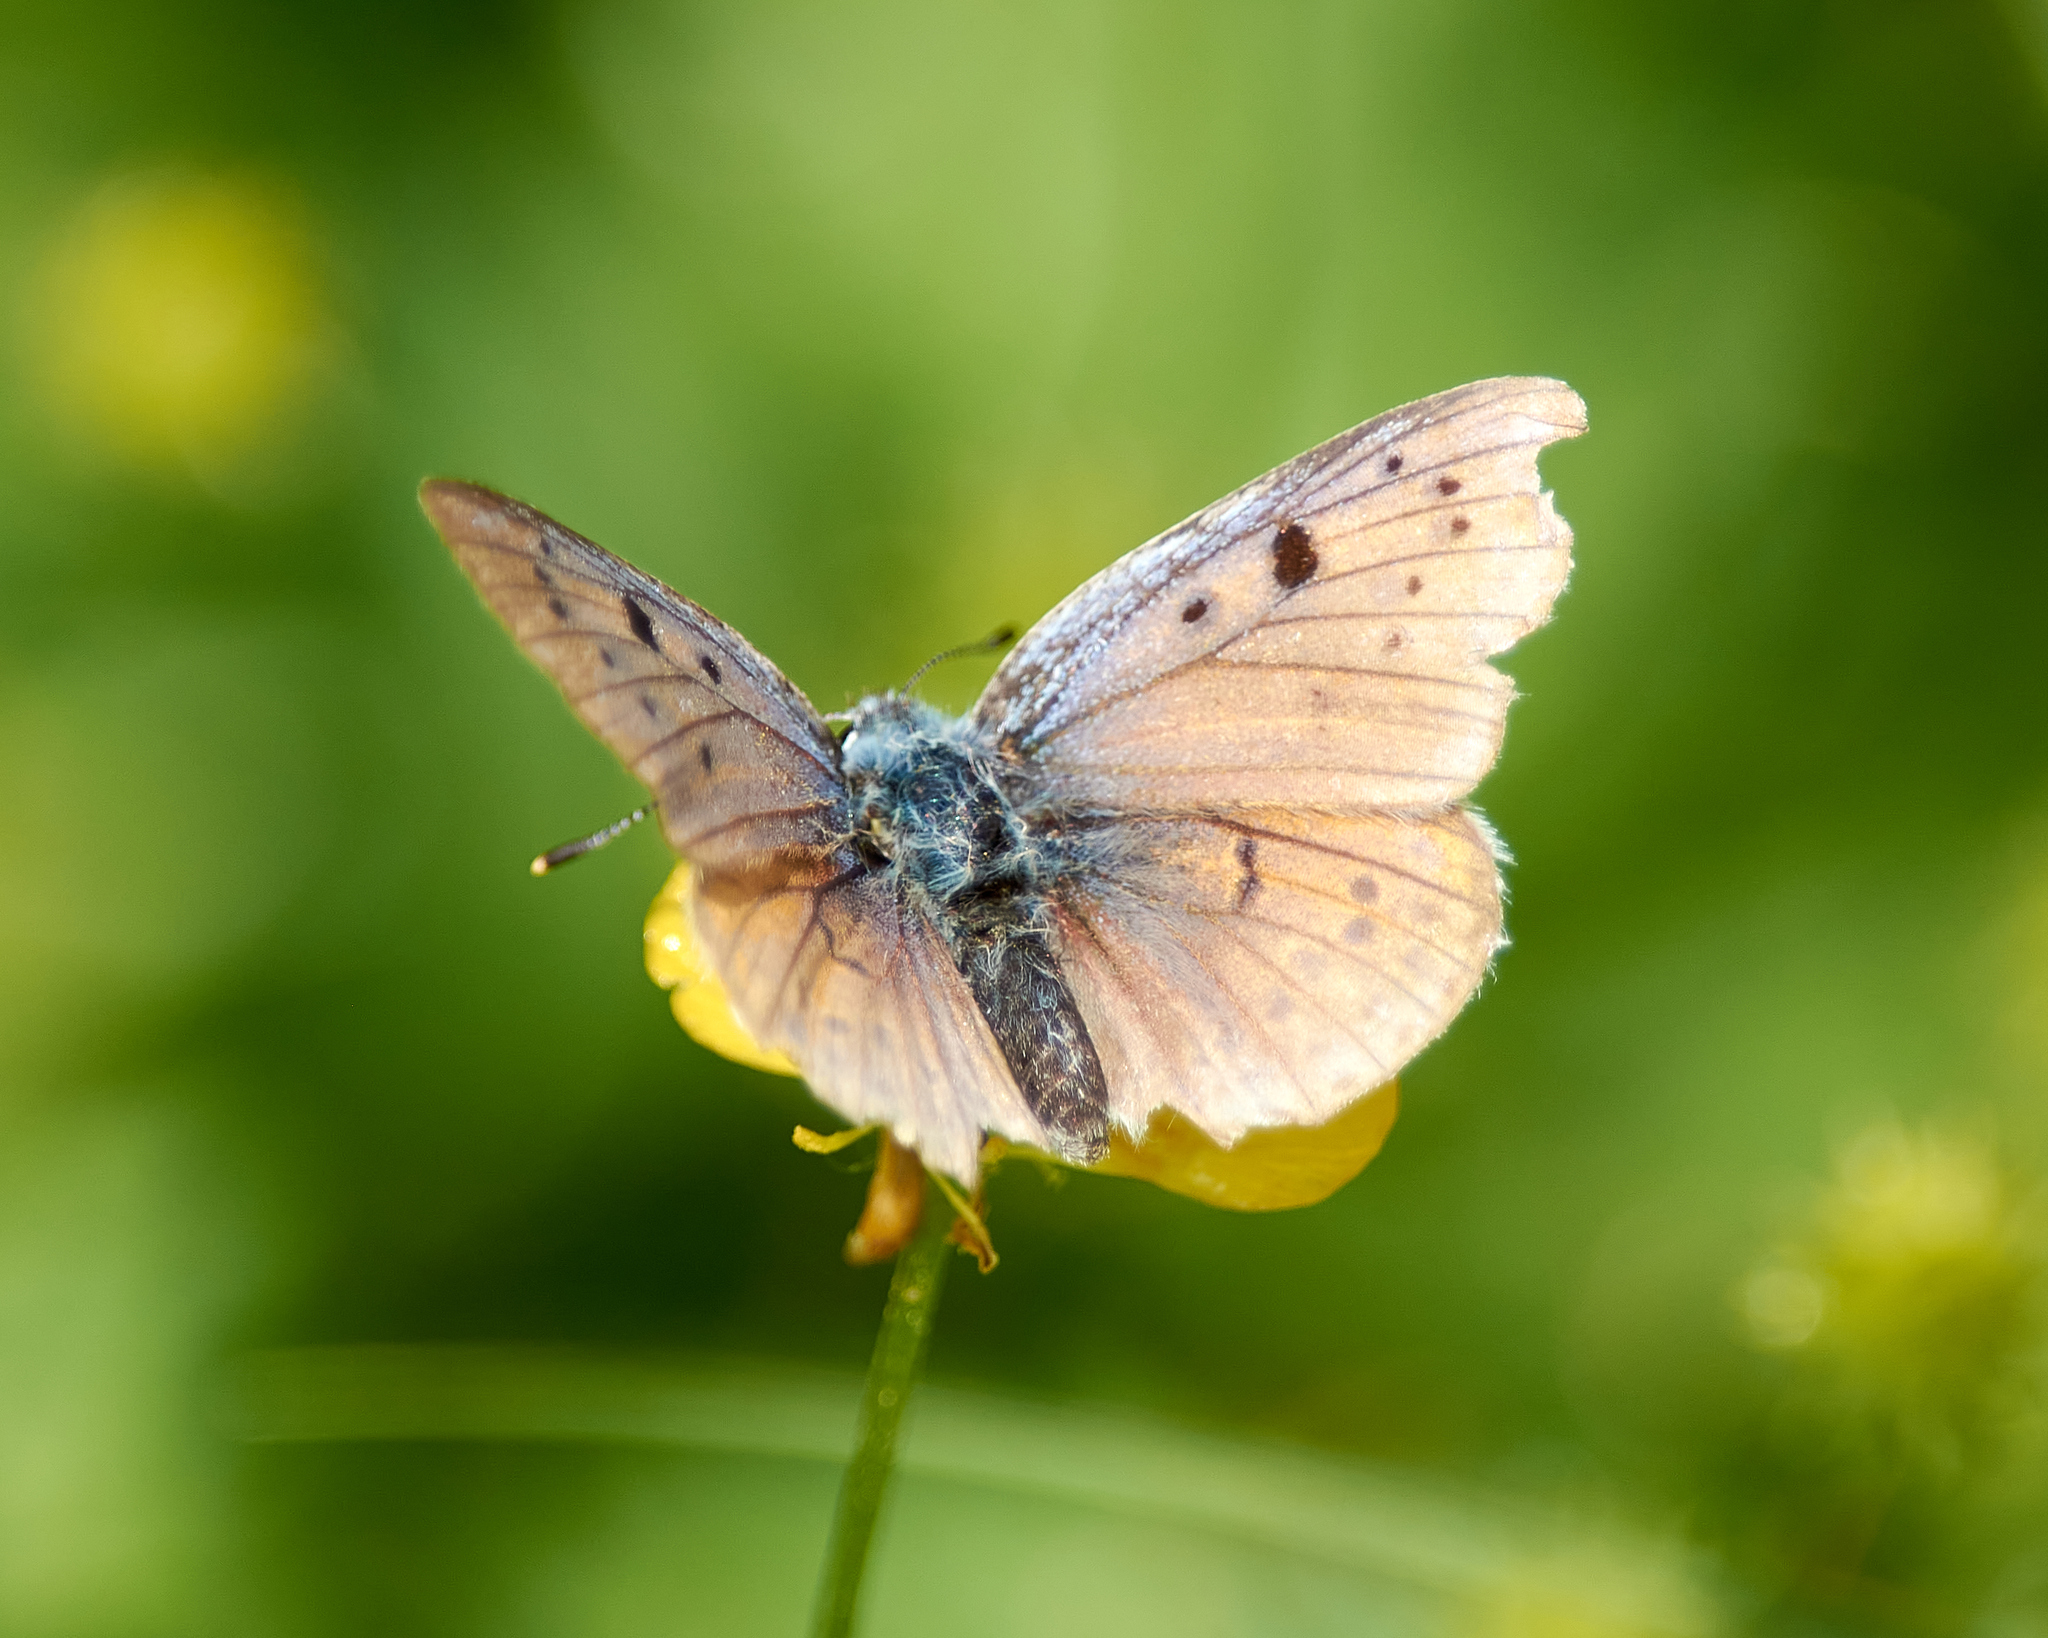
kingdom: Animalia
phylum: Arthropoda
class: Insecta
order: Lepidoptera
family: Lycaenidae
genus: Lycaena
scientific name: Lycaena alciphron
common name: Purple-shot copper
